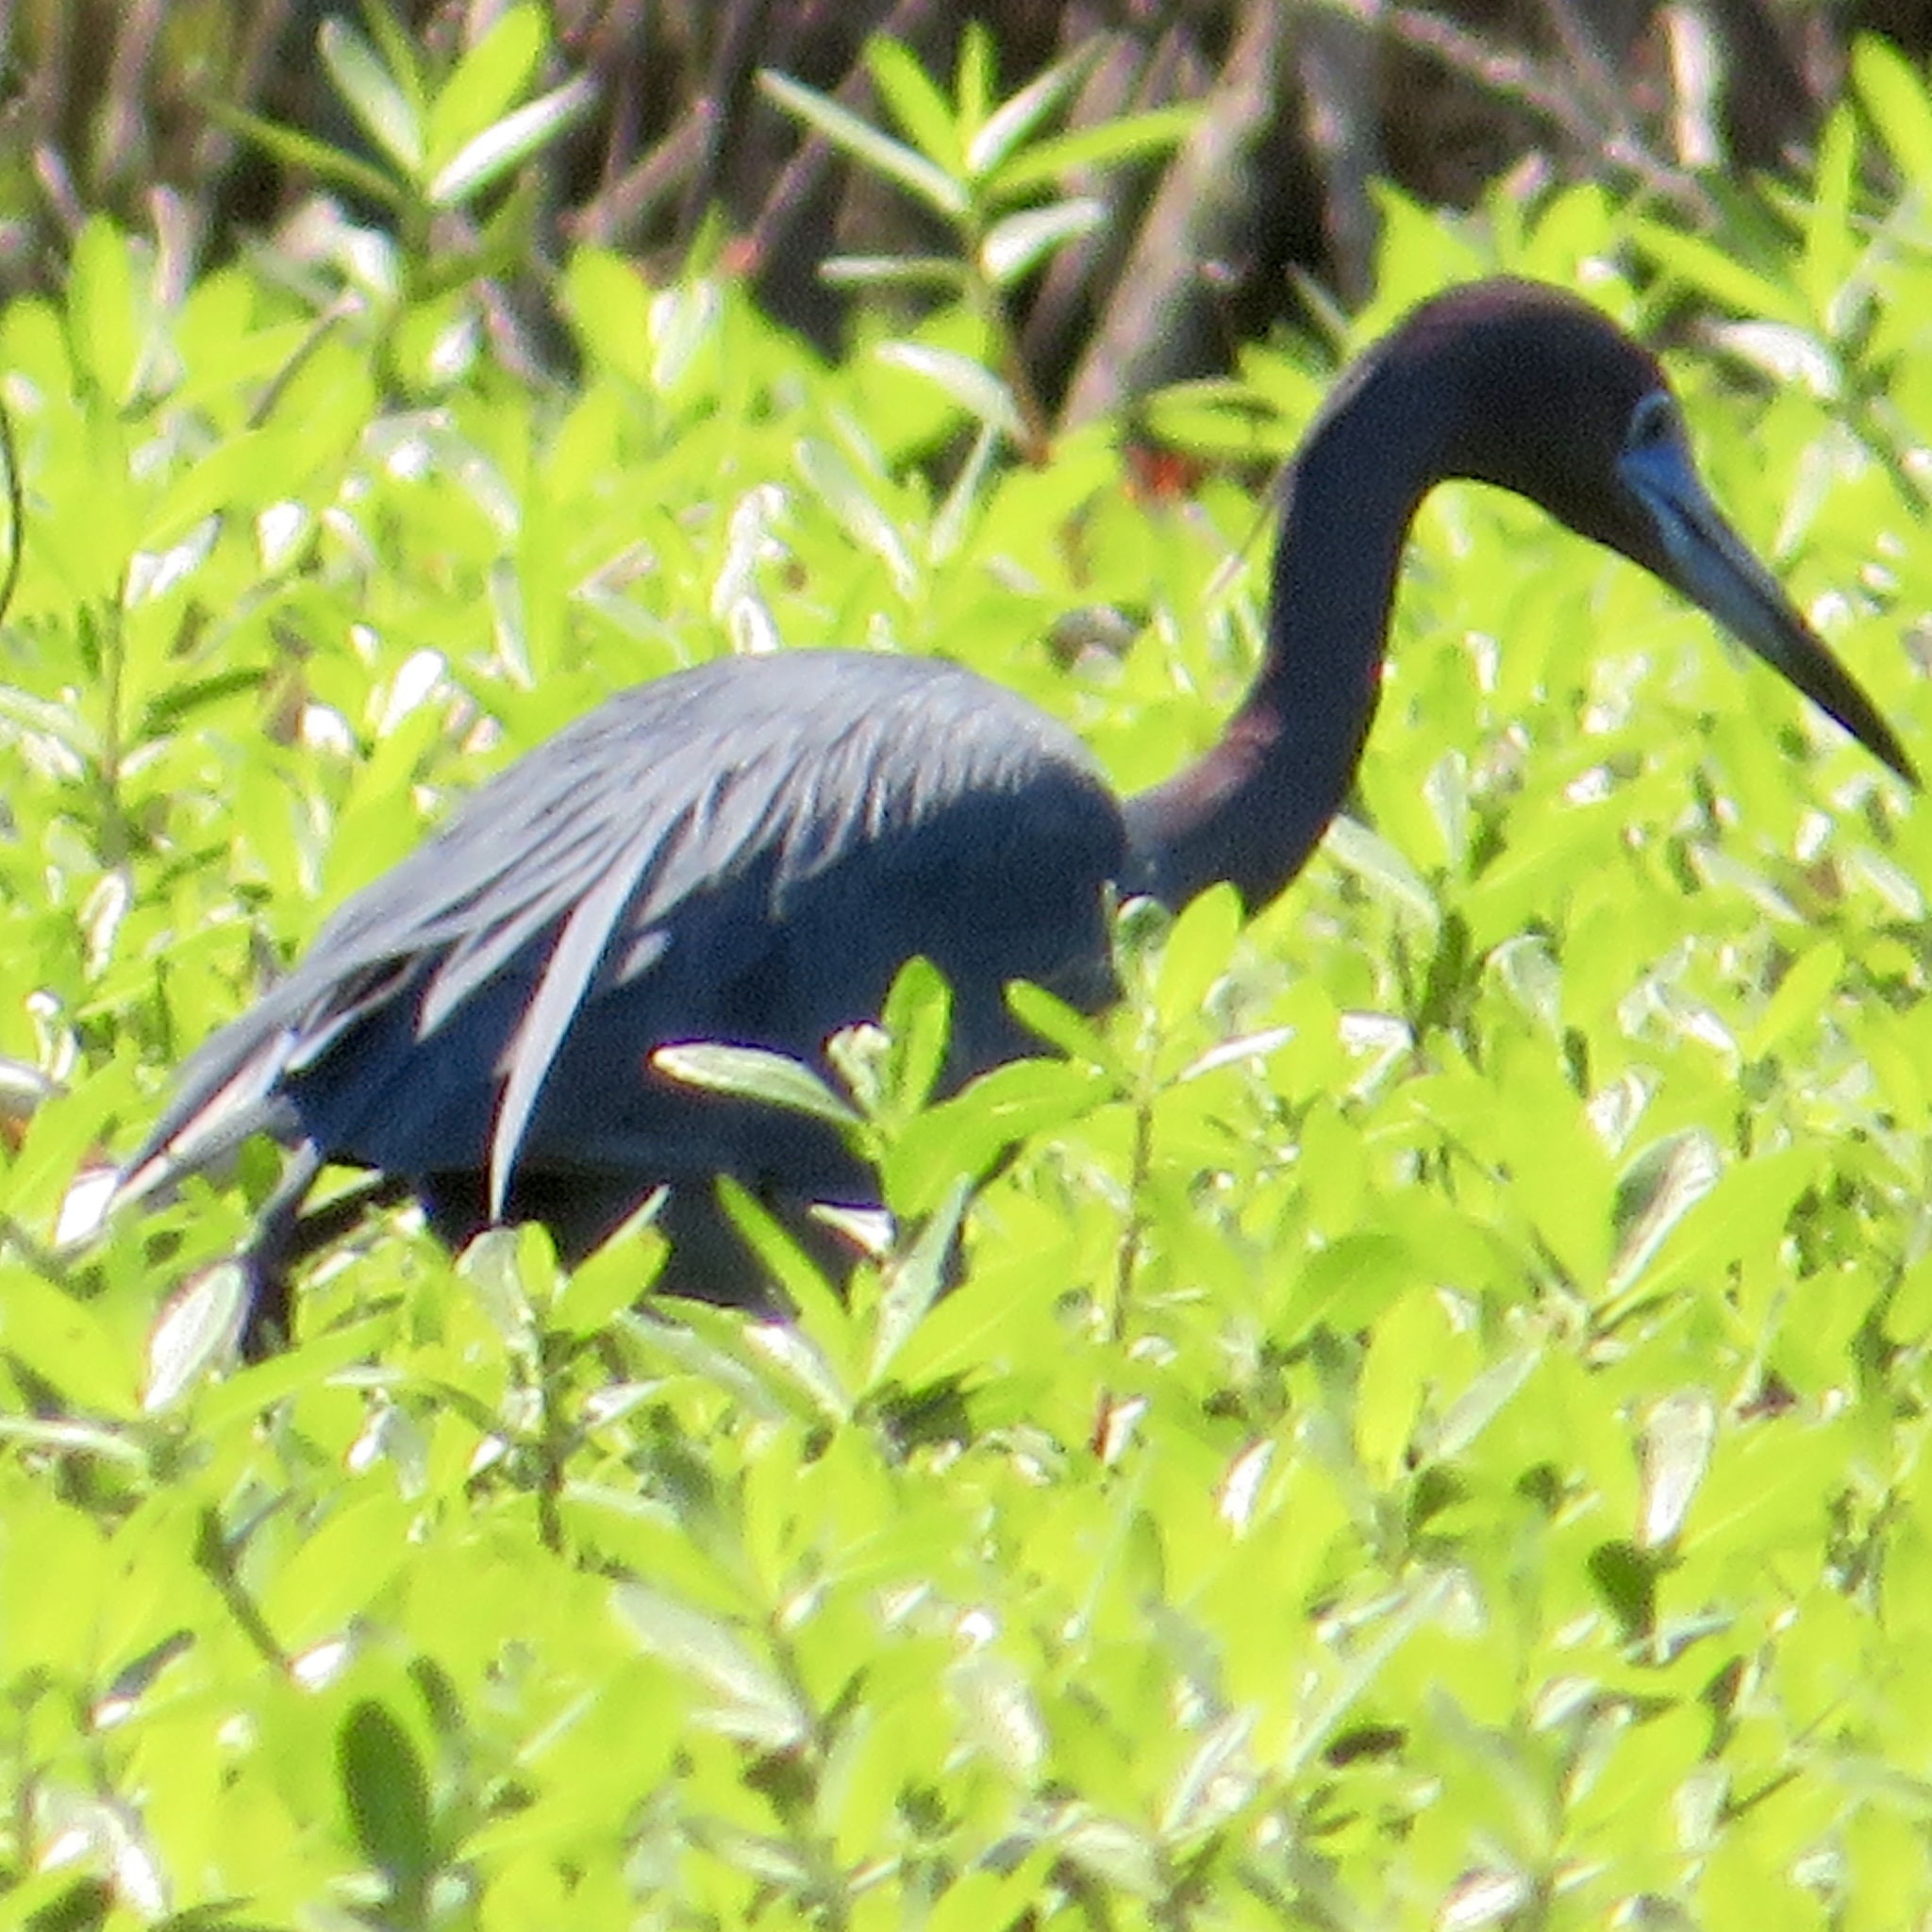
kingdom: Animalia
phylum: Chordata
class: Aves
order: Pelecaniformes
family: Ardeidae
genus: Egretta
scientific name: Egretta caerulea
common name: Little blue heron
